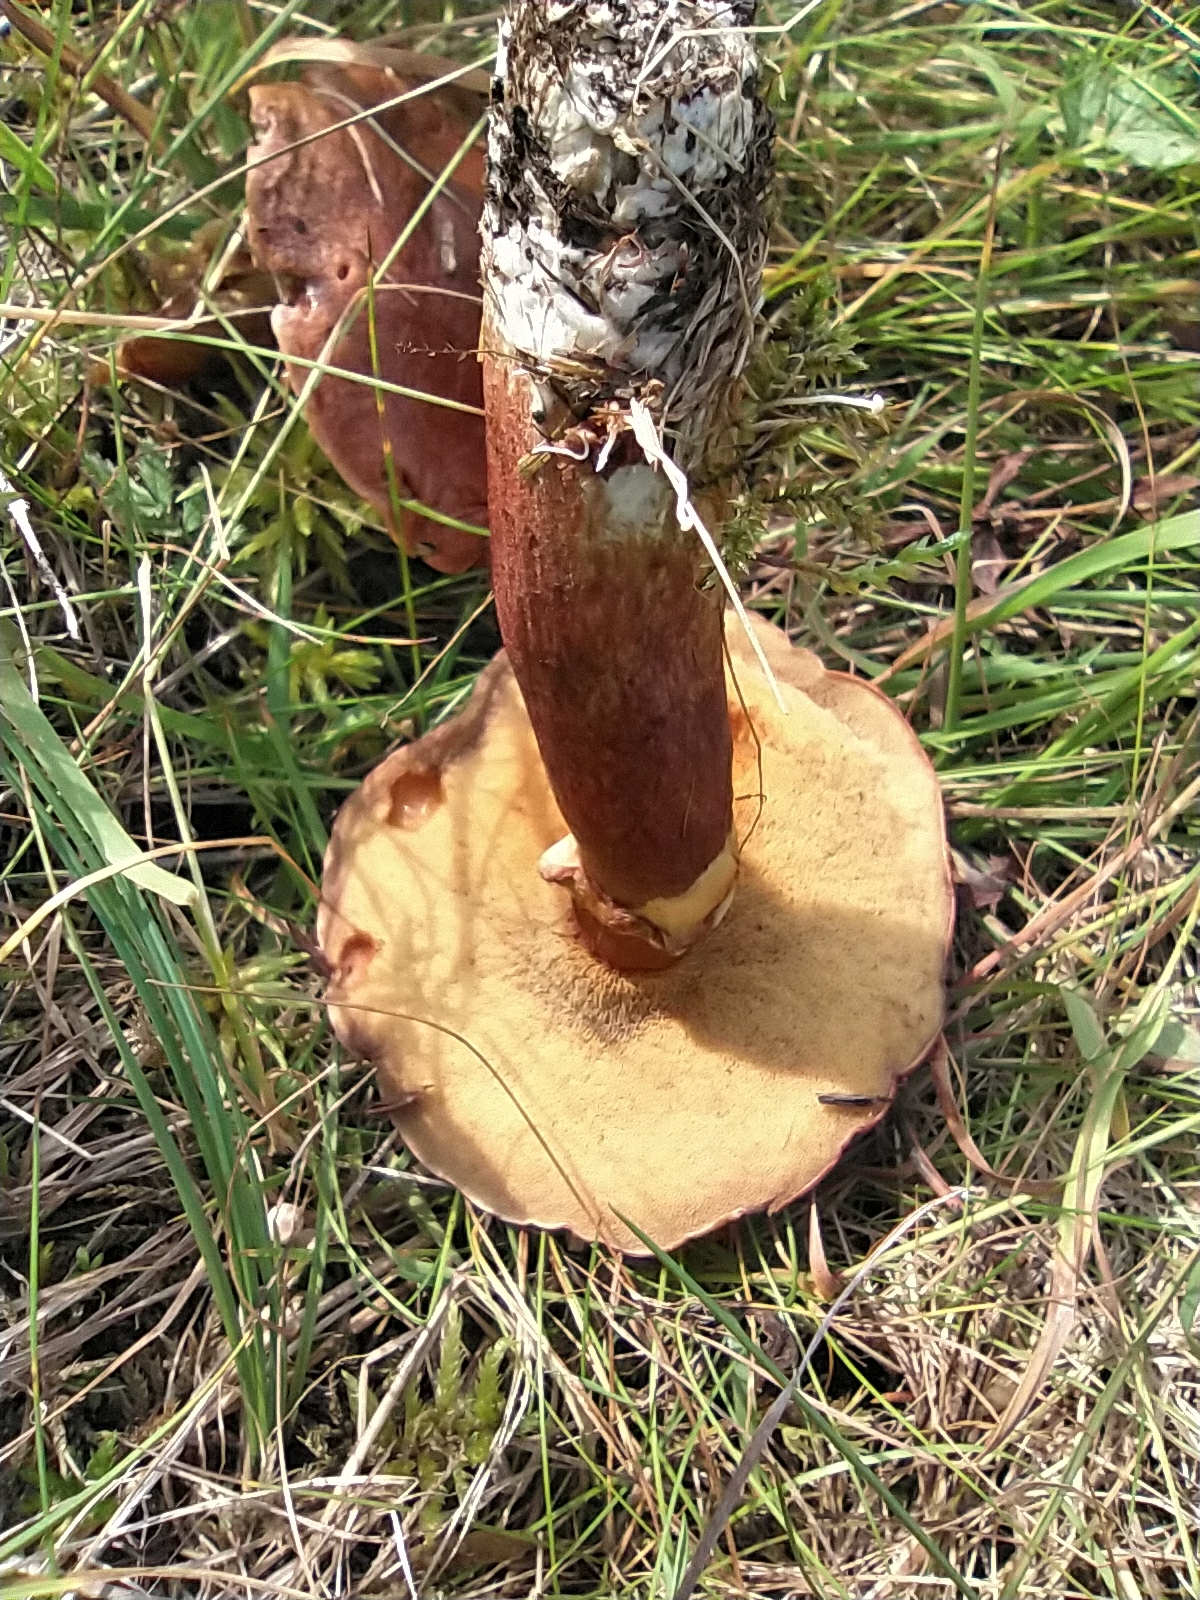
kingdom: Fungi
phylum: Basidiomycota
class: Agaricomycetes
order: Boletales
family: Suillaceae
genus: Suillus
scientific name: Suillus luteus
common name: Slippery jack
